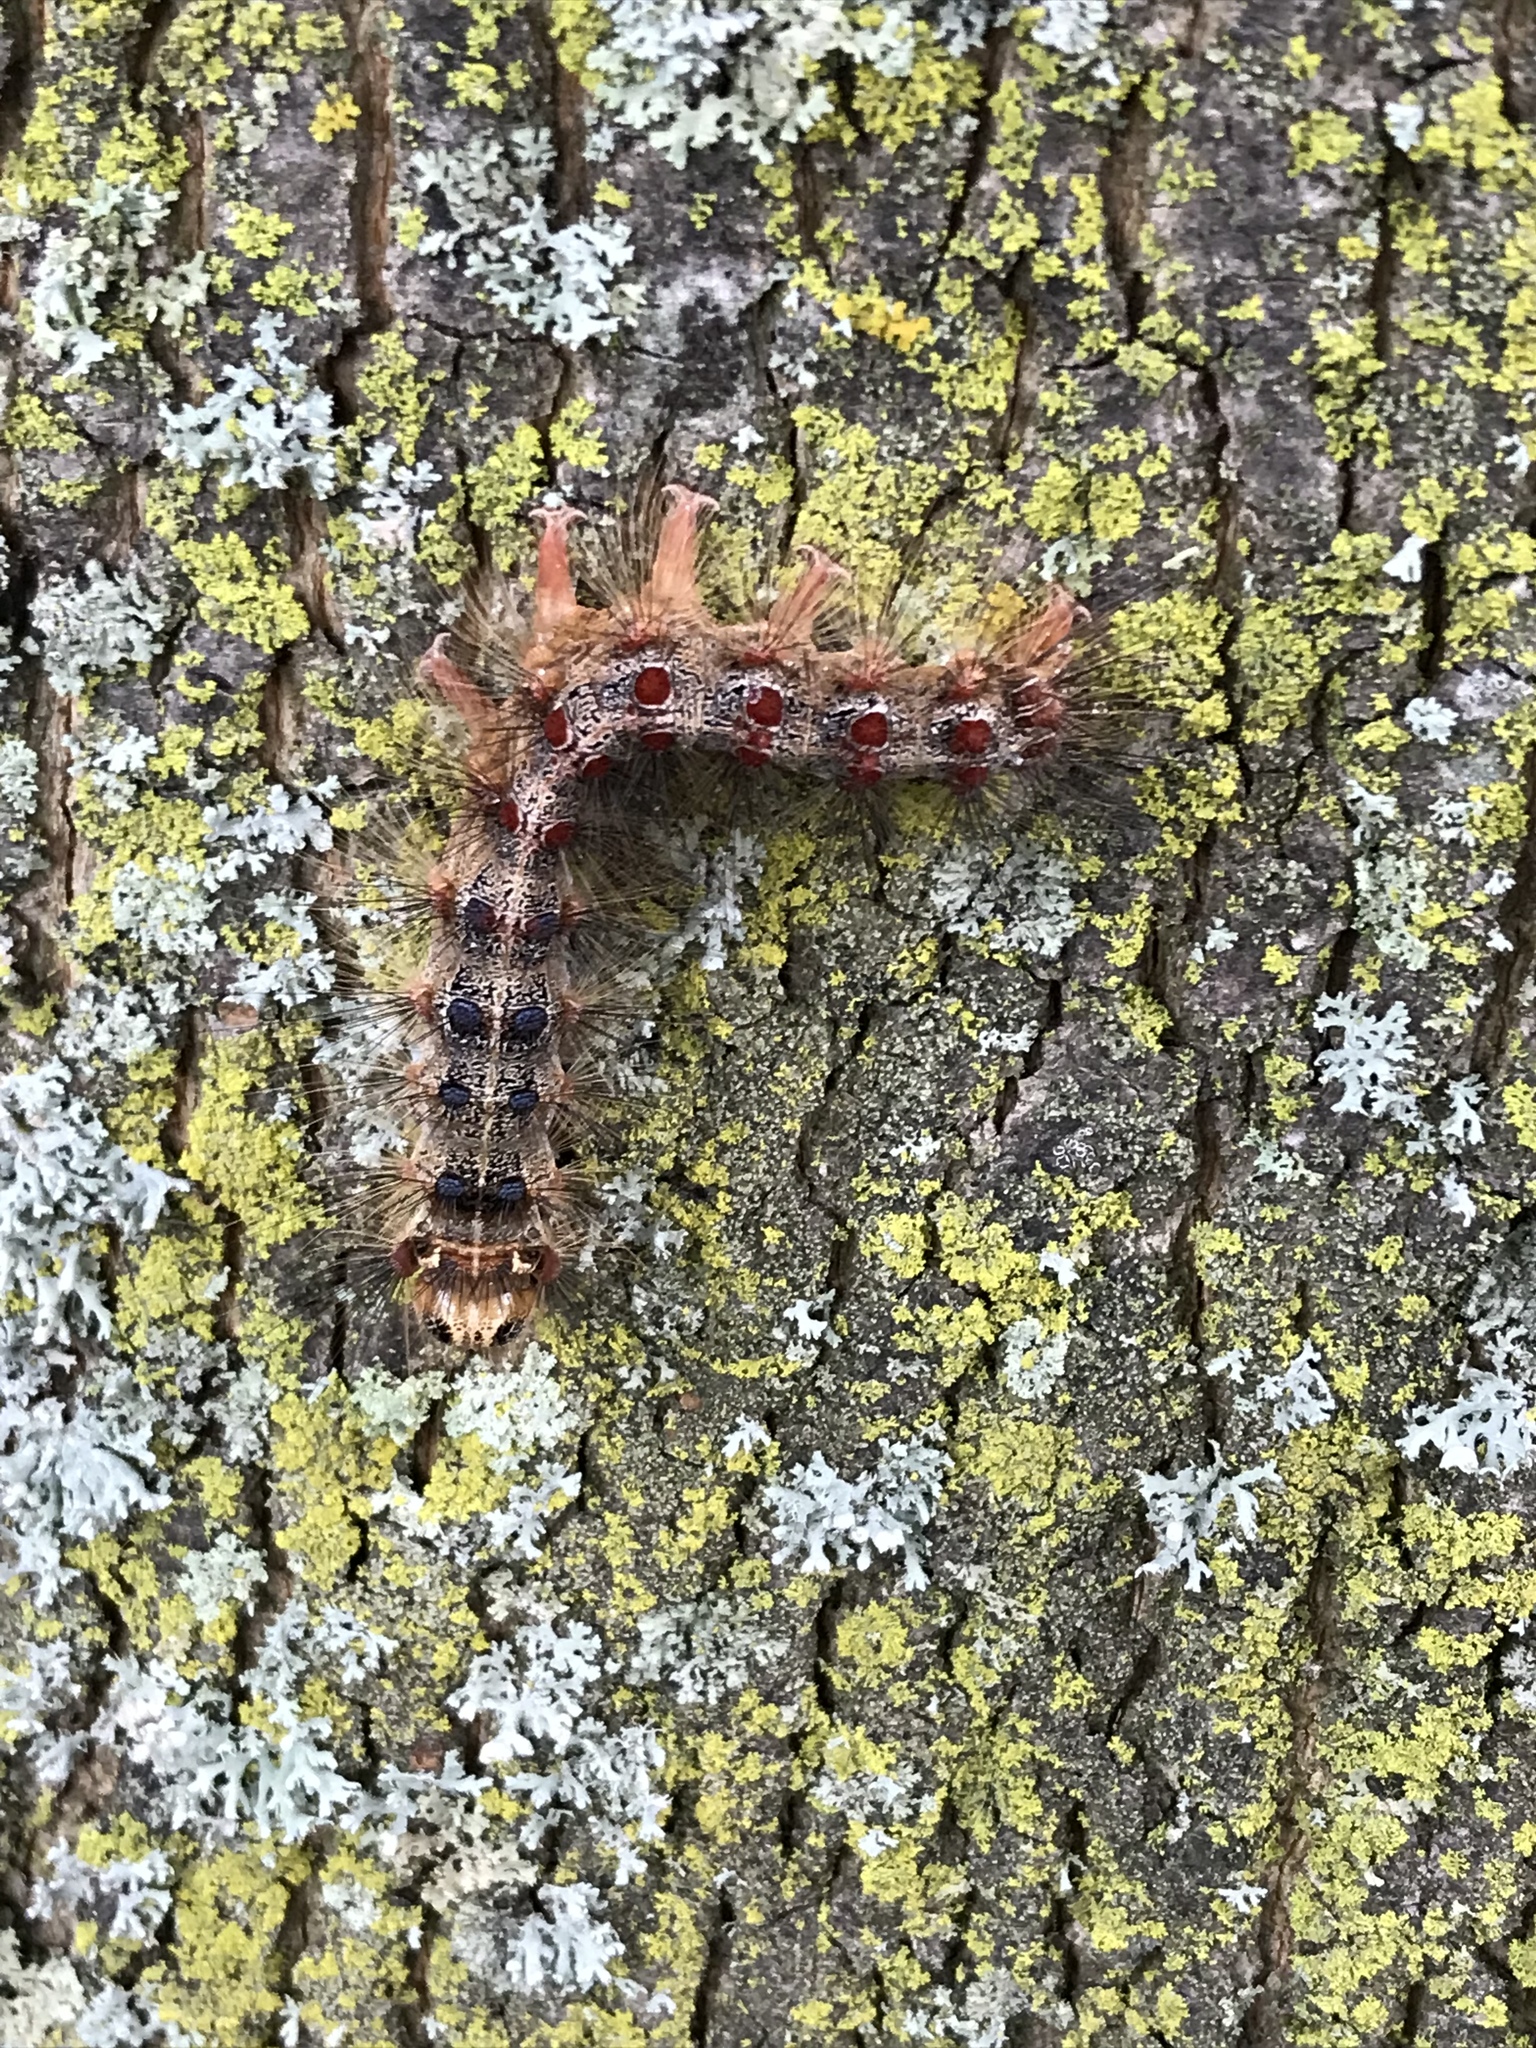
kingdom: Animalia
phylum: Arthropoda
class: Insecta
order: Lepidoptera
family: Erebidae
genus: Lymantria
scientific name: Lymantria dispar
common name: Gypsy moth
